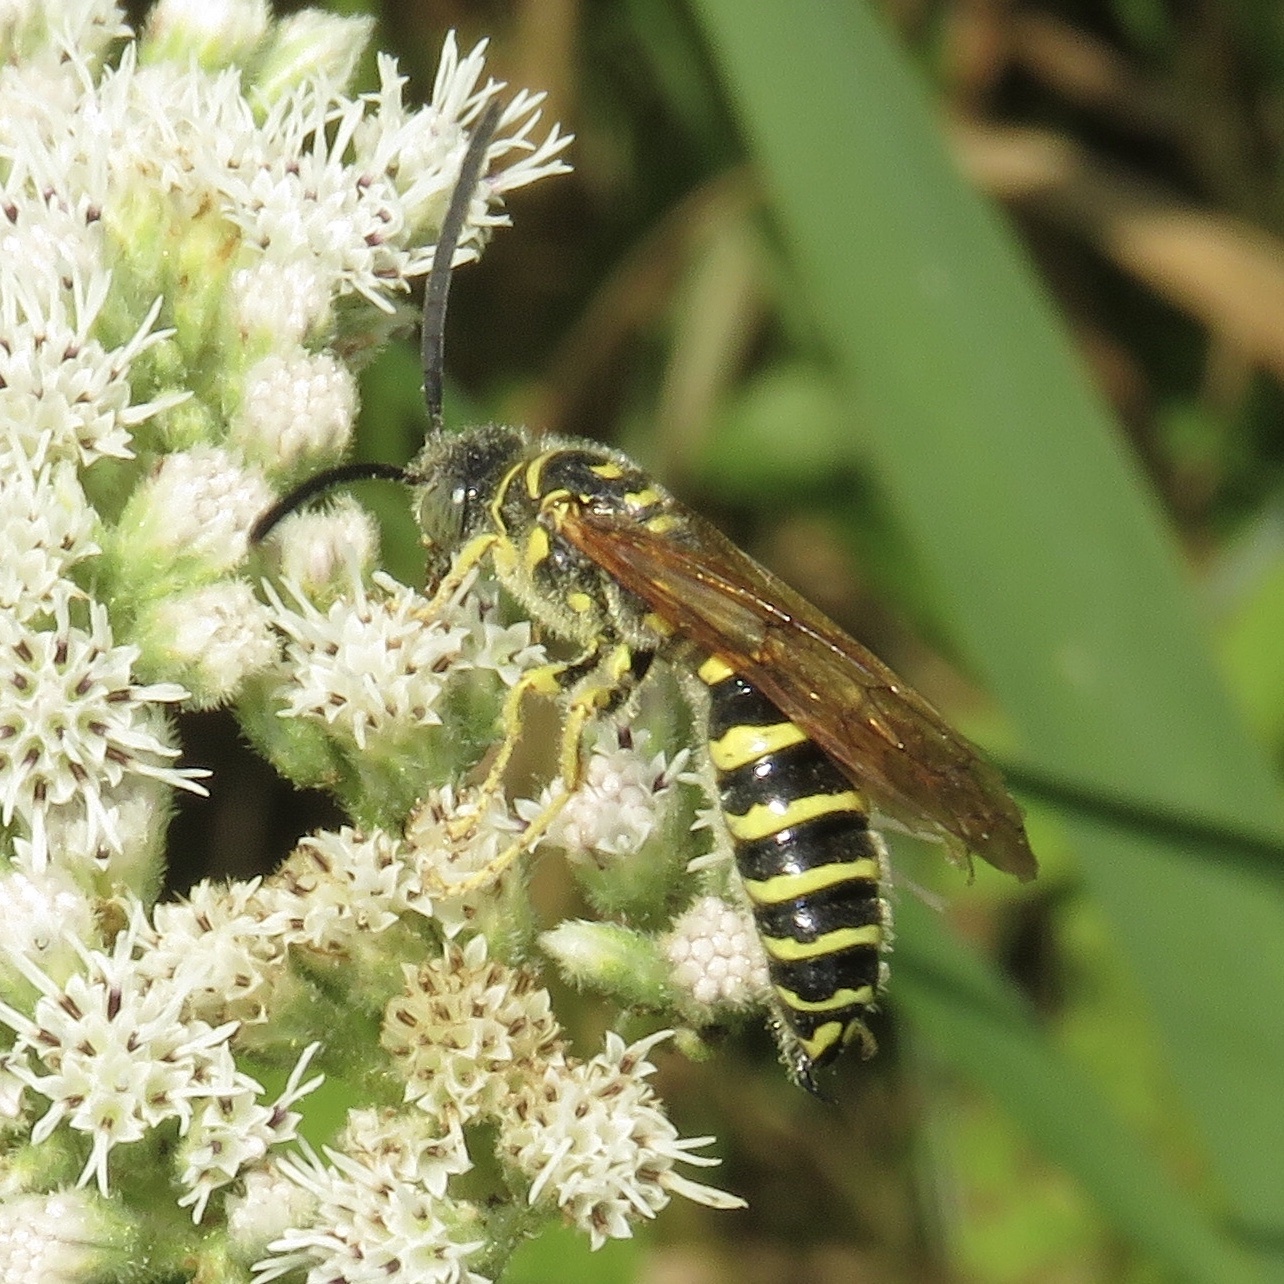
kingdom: Animalia
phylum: Arthropoda
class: Insecta
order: Hymenoptera
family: Tiphiidae
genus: Myzinum
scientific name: Myzinum quinquecinctum
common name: Five-banded thynnid wasp
